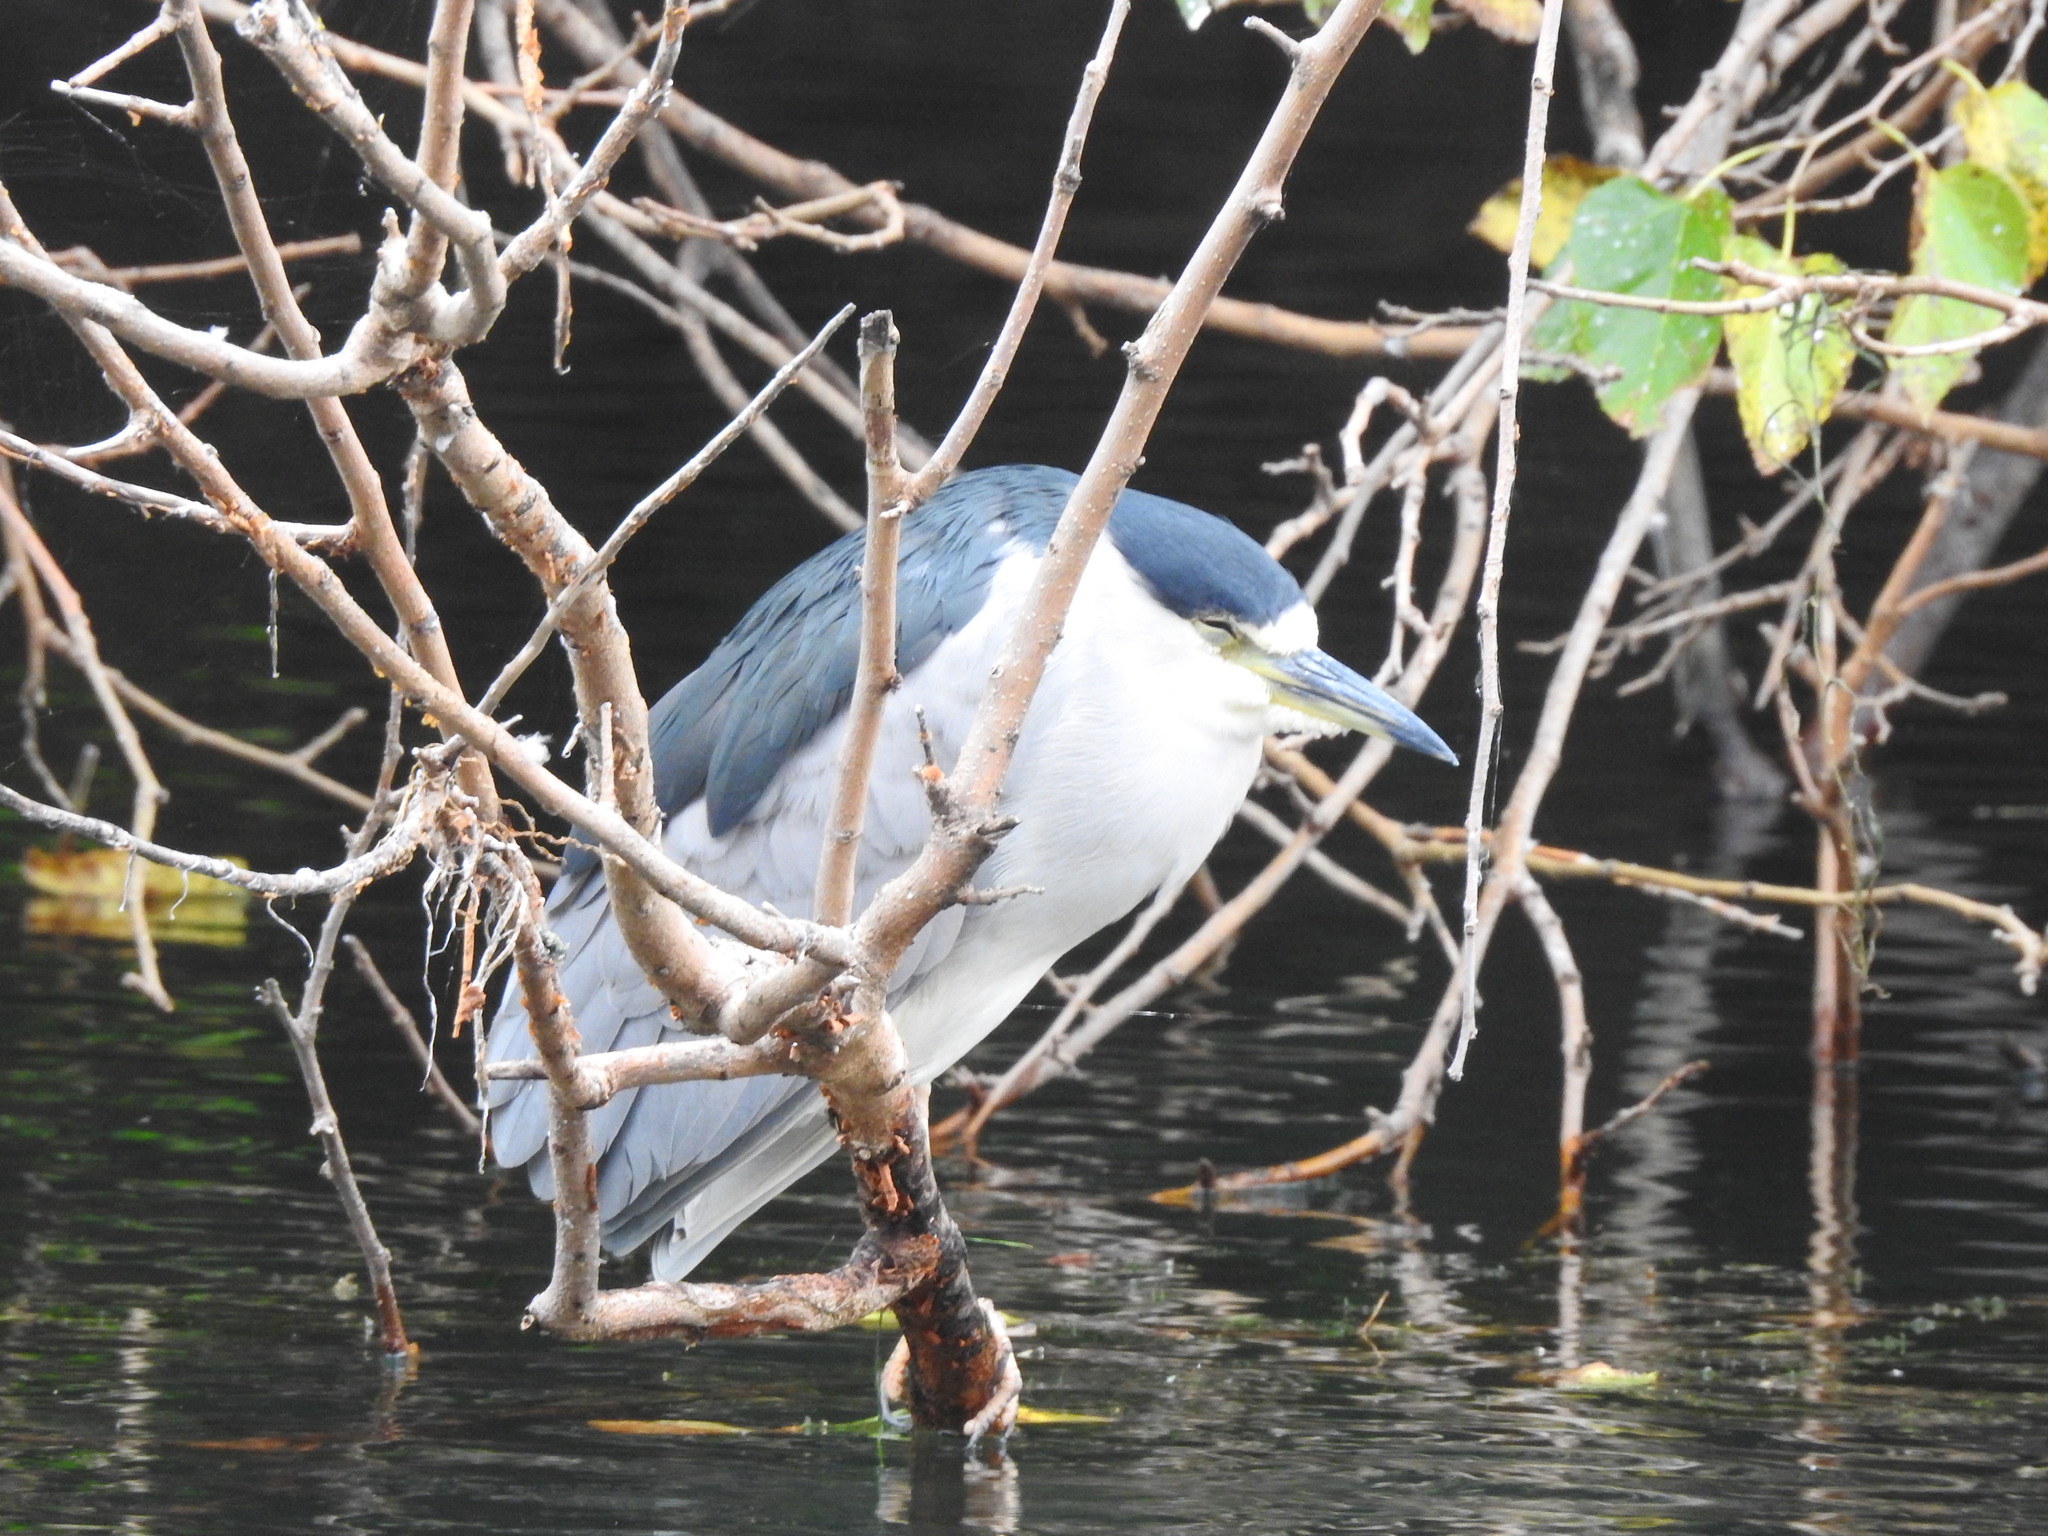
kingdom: Animalia
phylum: Chordata
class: Aves
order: Pelecaniformes
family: Ardeidae
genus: Nycticorax
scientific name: Nycticorax nycticorax
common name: Black-crowned night heron
